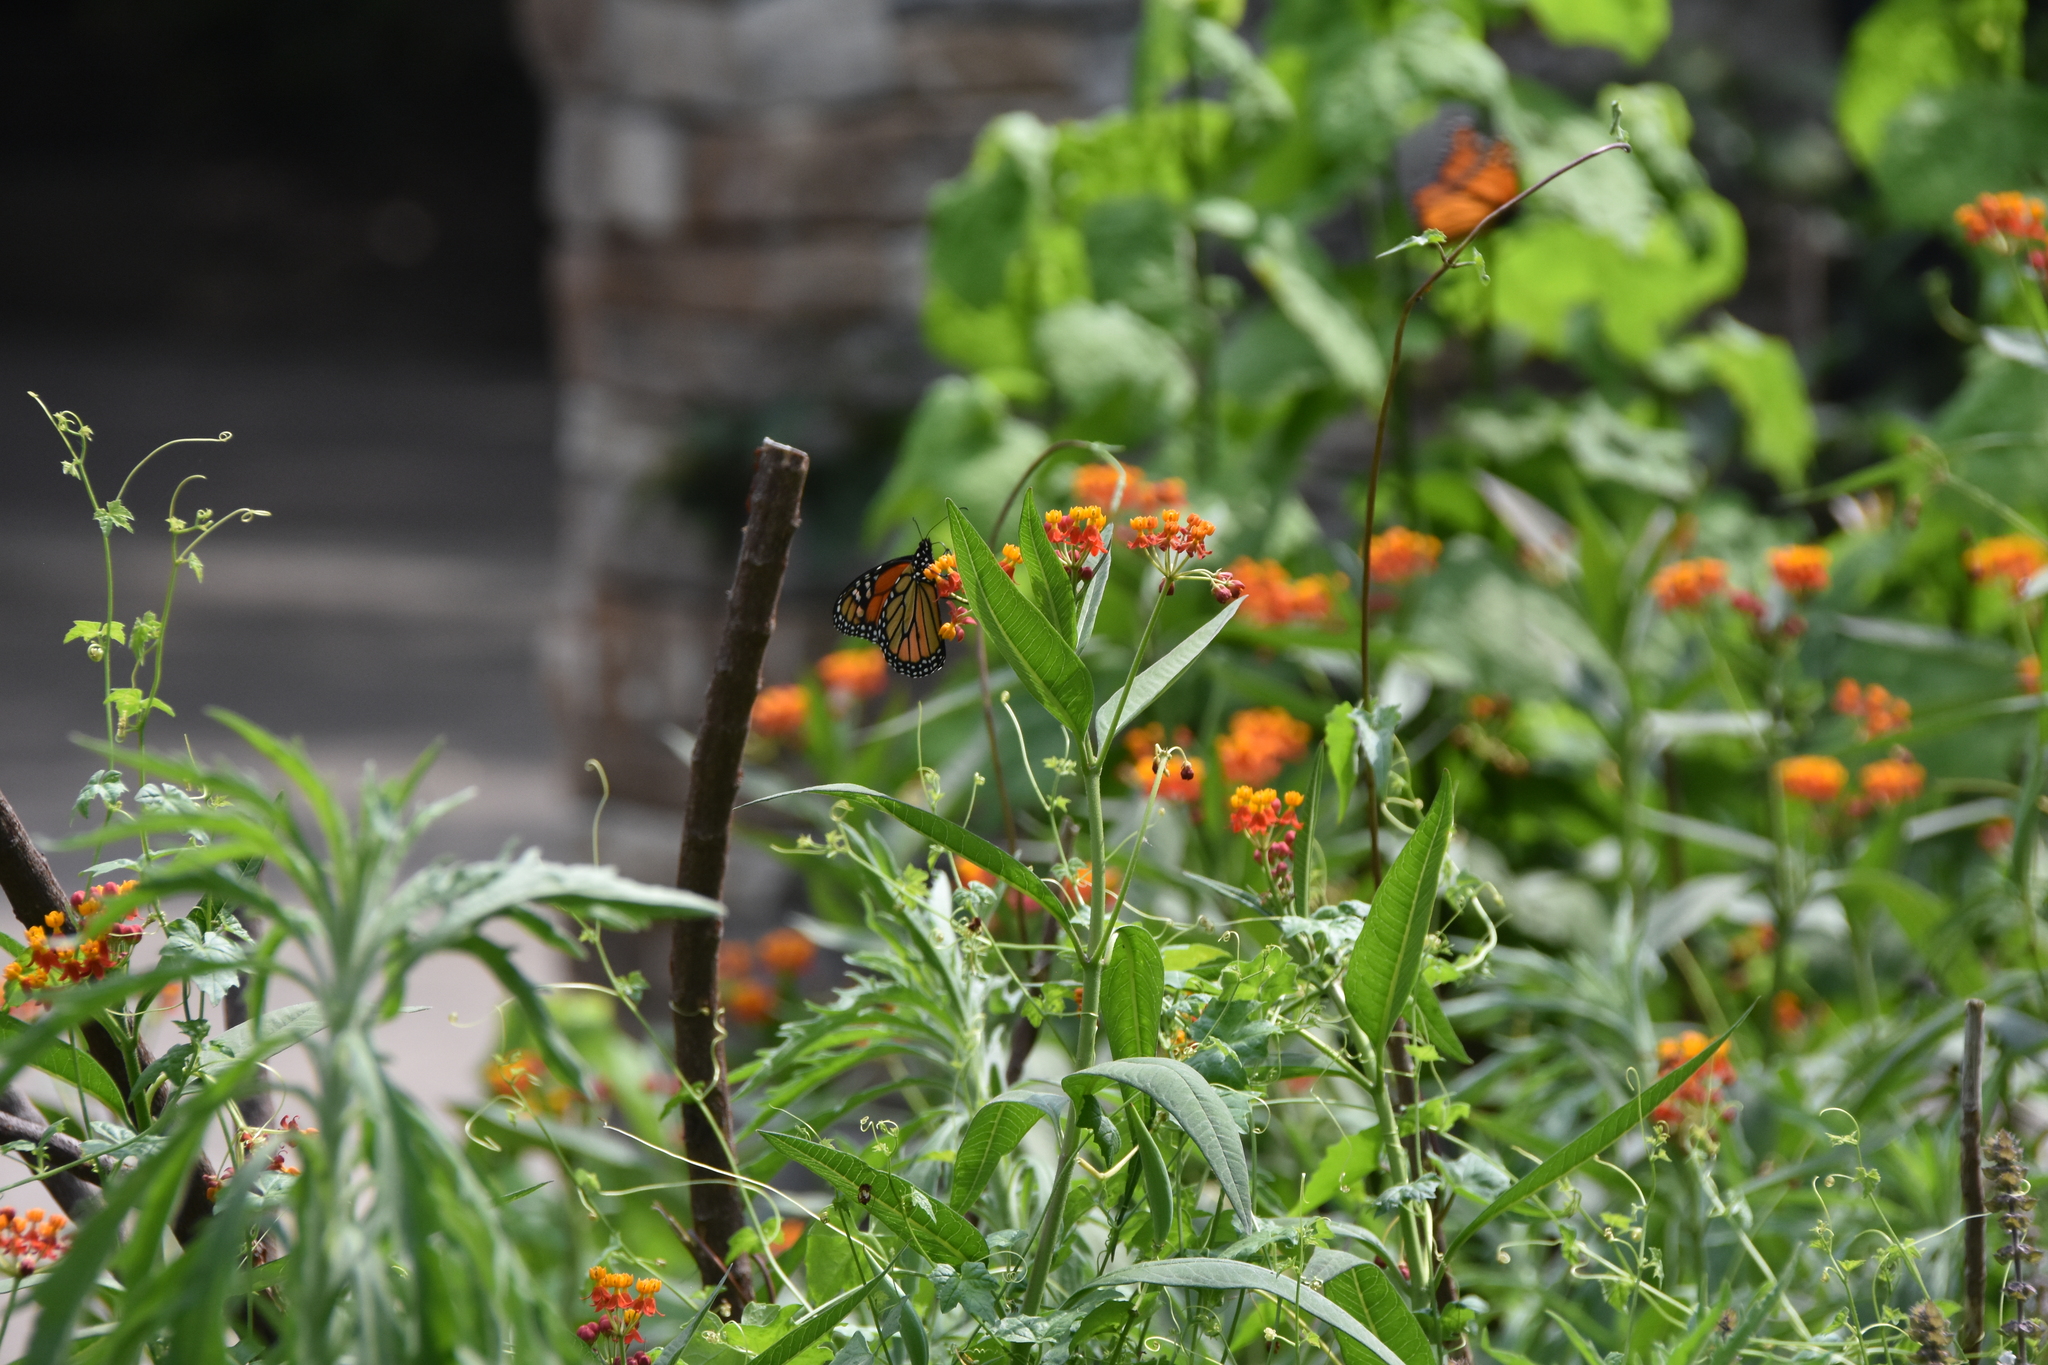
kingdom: Animalia
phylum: Arthropoda
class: Insecta
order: Lepidoptera
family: Nymphalidae
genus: Danaus
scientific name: Danaus plexippus
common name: Monarch
